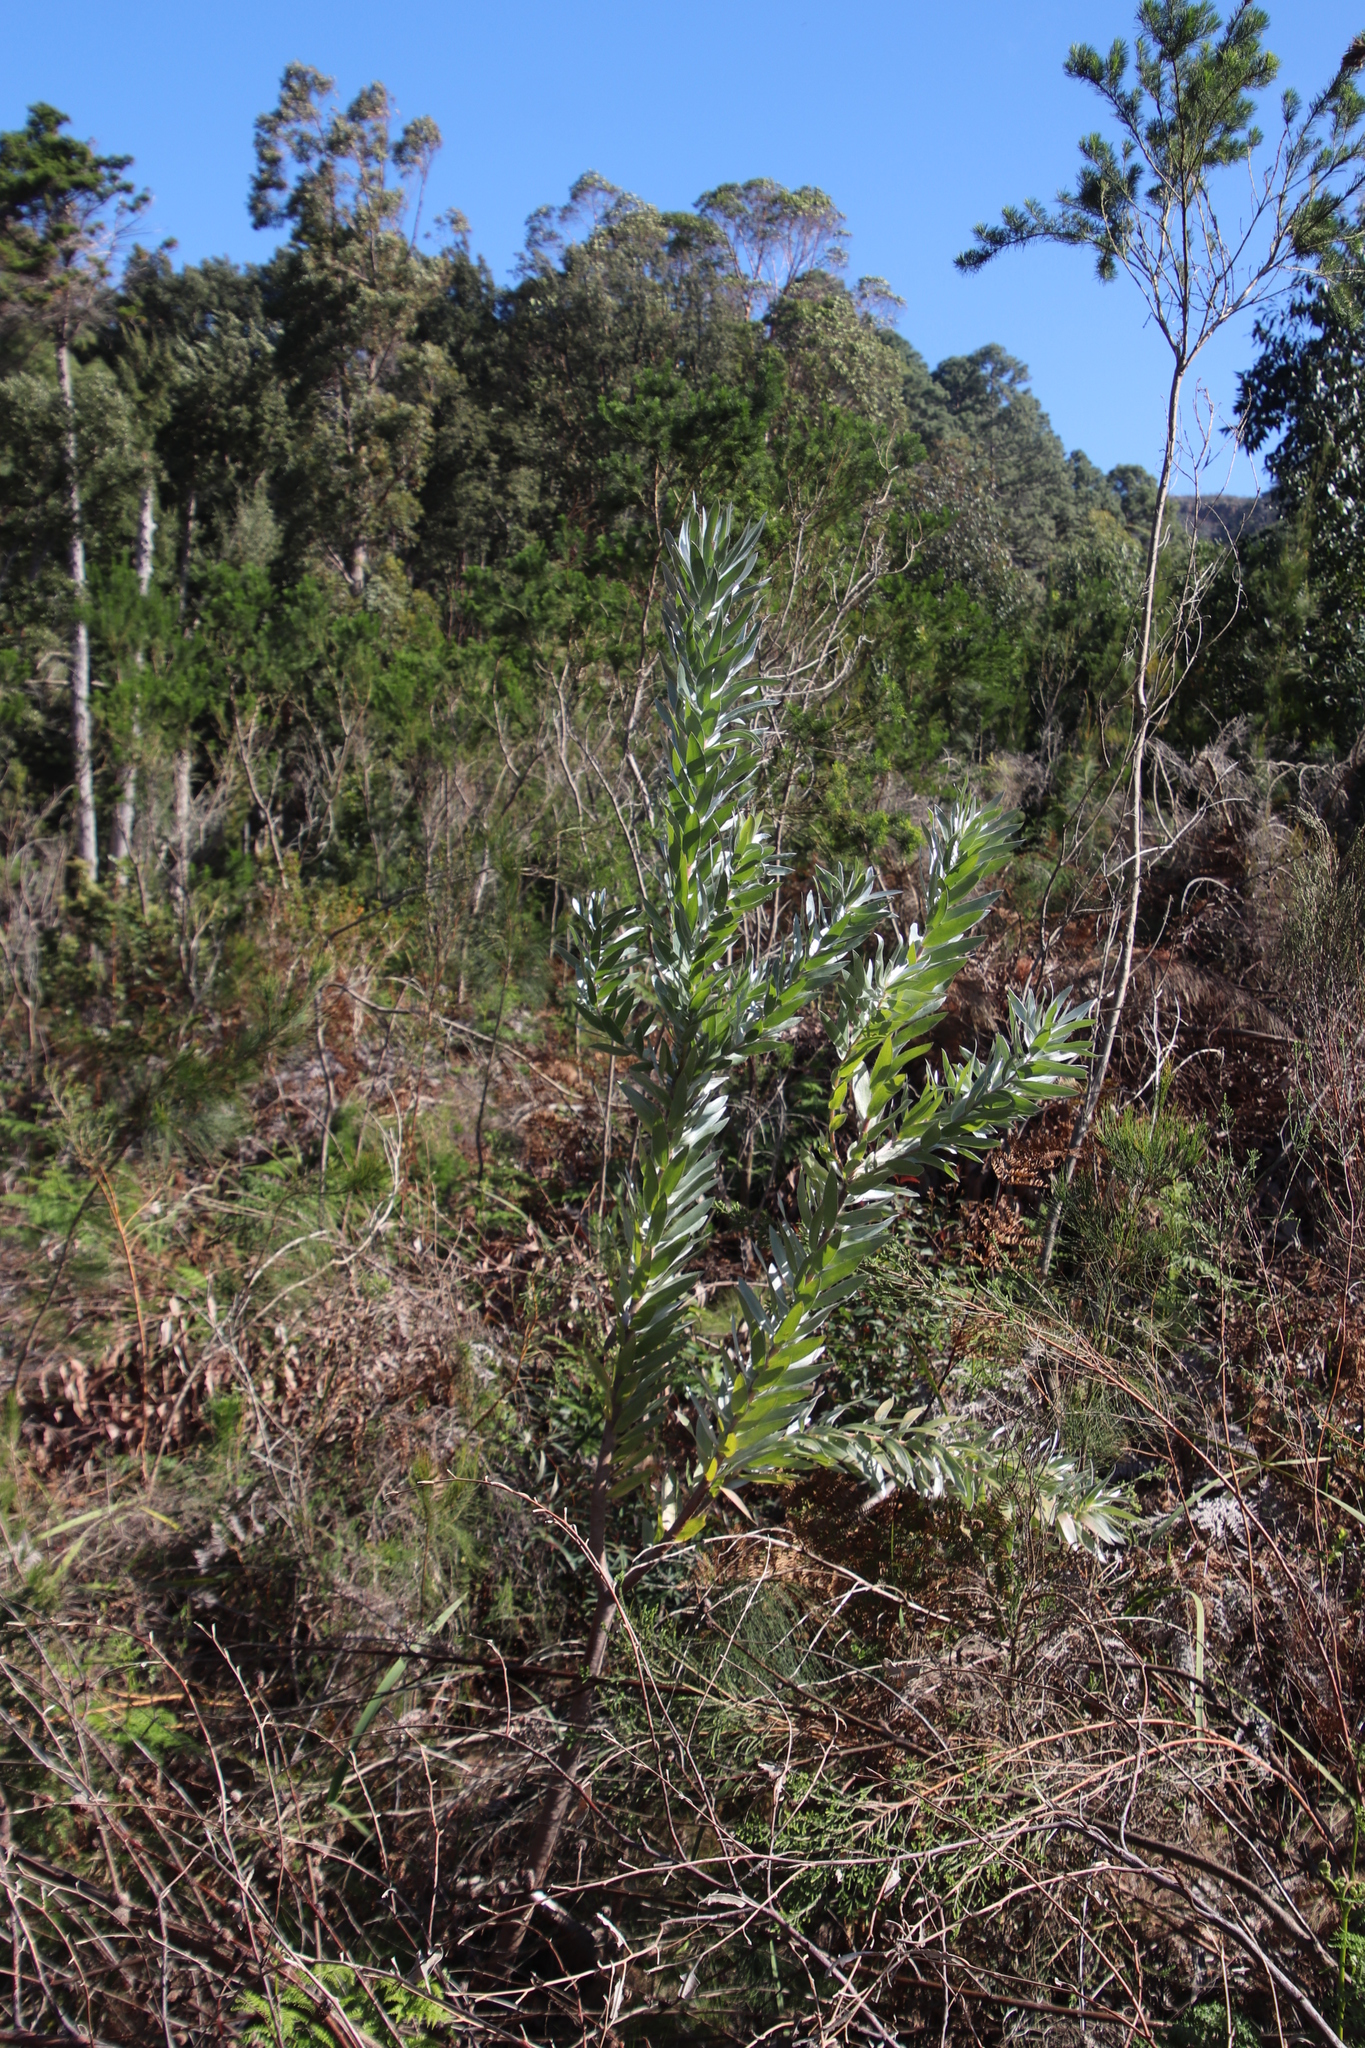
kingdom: Plantae
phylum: Tracheophyta
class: Magnoliopsida
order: Proteales
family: Proteaceae
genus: Leucadendron
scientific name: Leucadendron argenteum
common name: Cape silver tree
